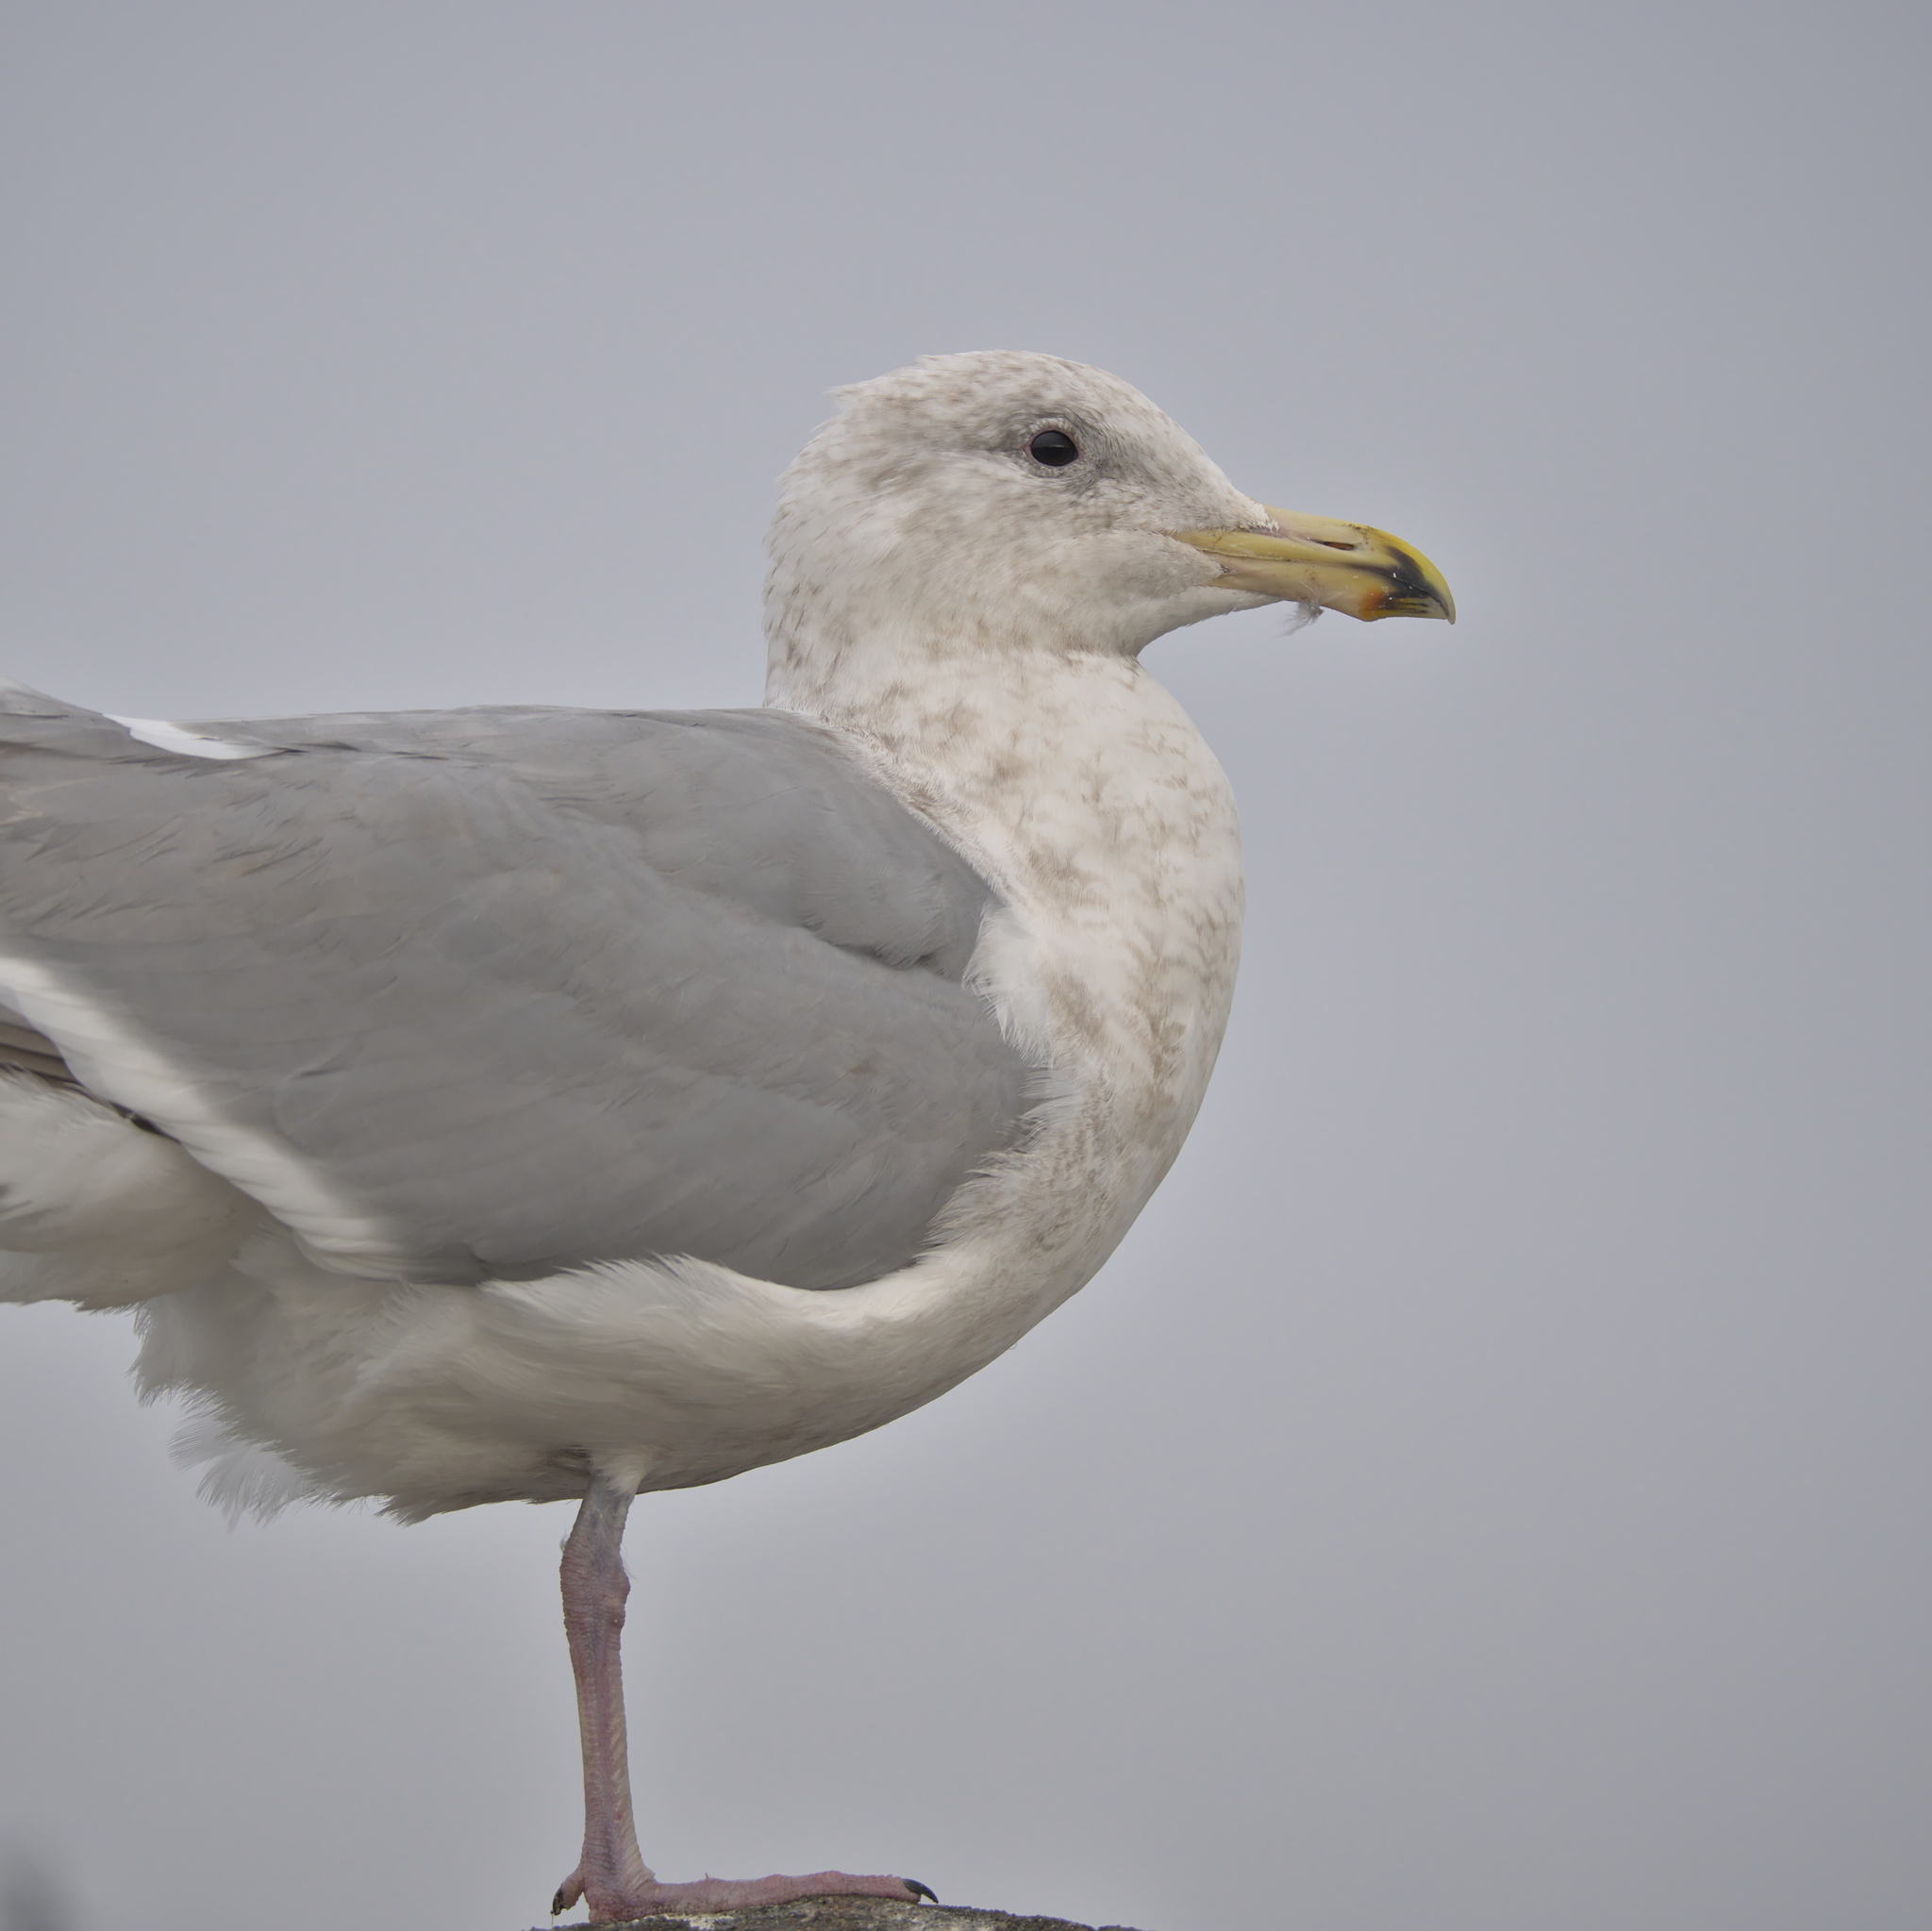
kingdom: Animalia
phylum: Chordata
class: Aves
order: Charadriiformes
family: Laridae
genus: Larus
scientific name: Larus glaucescens
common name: Glaucous-winged gull
